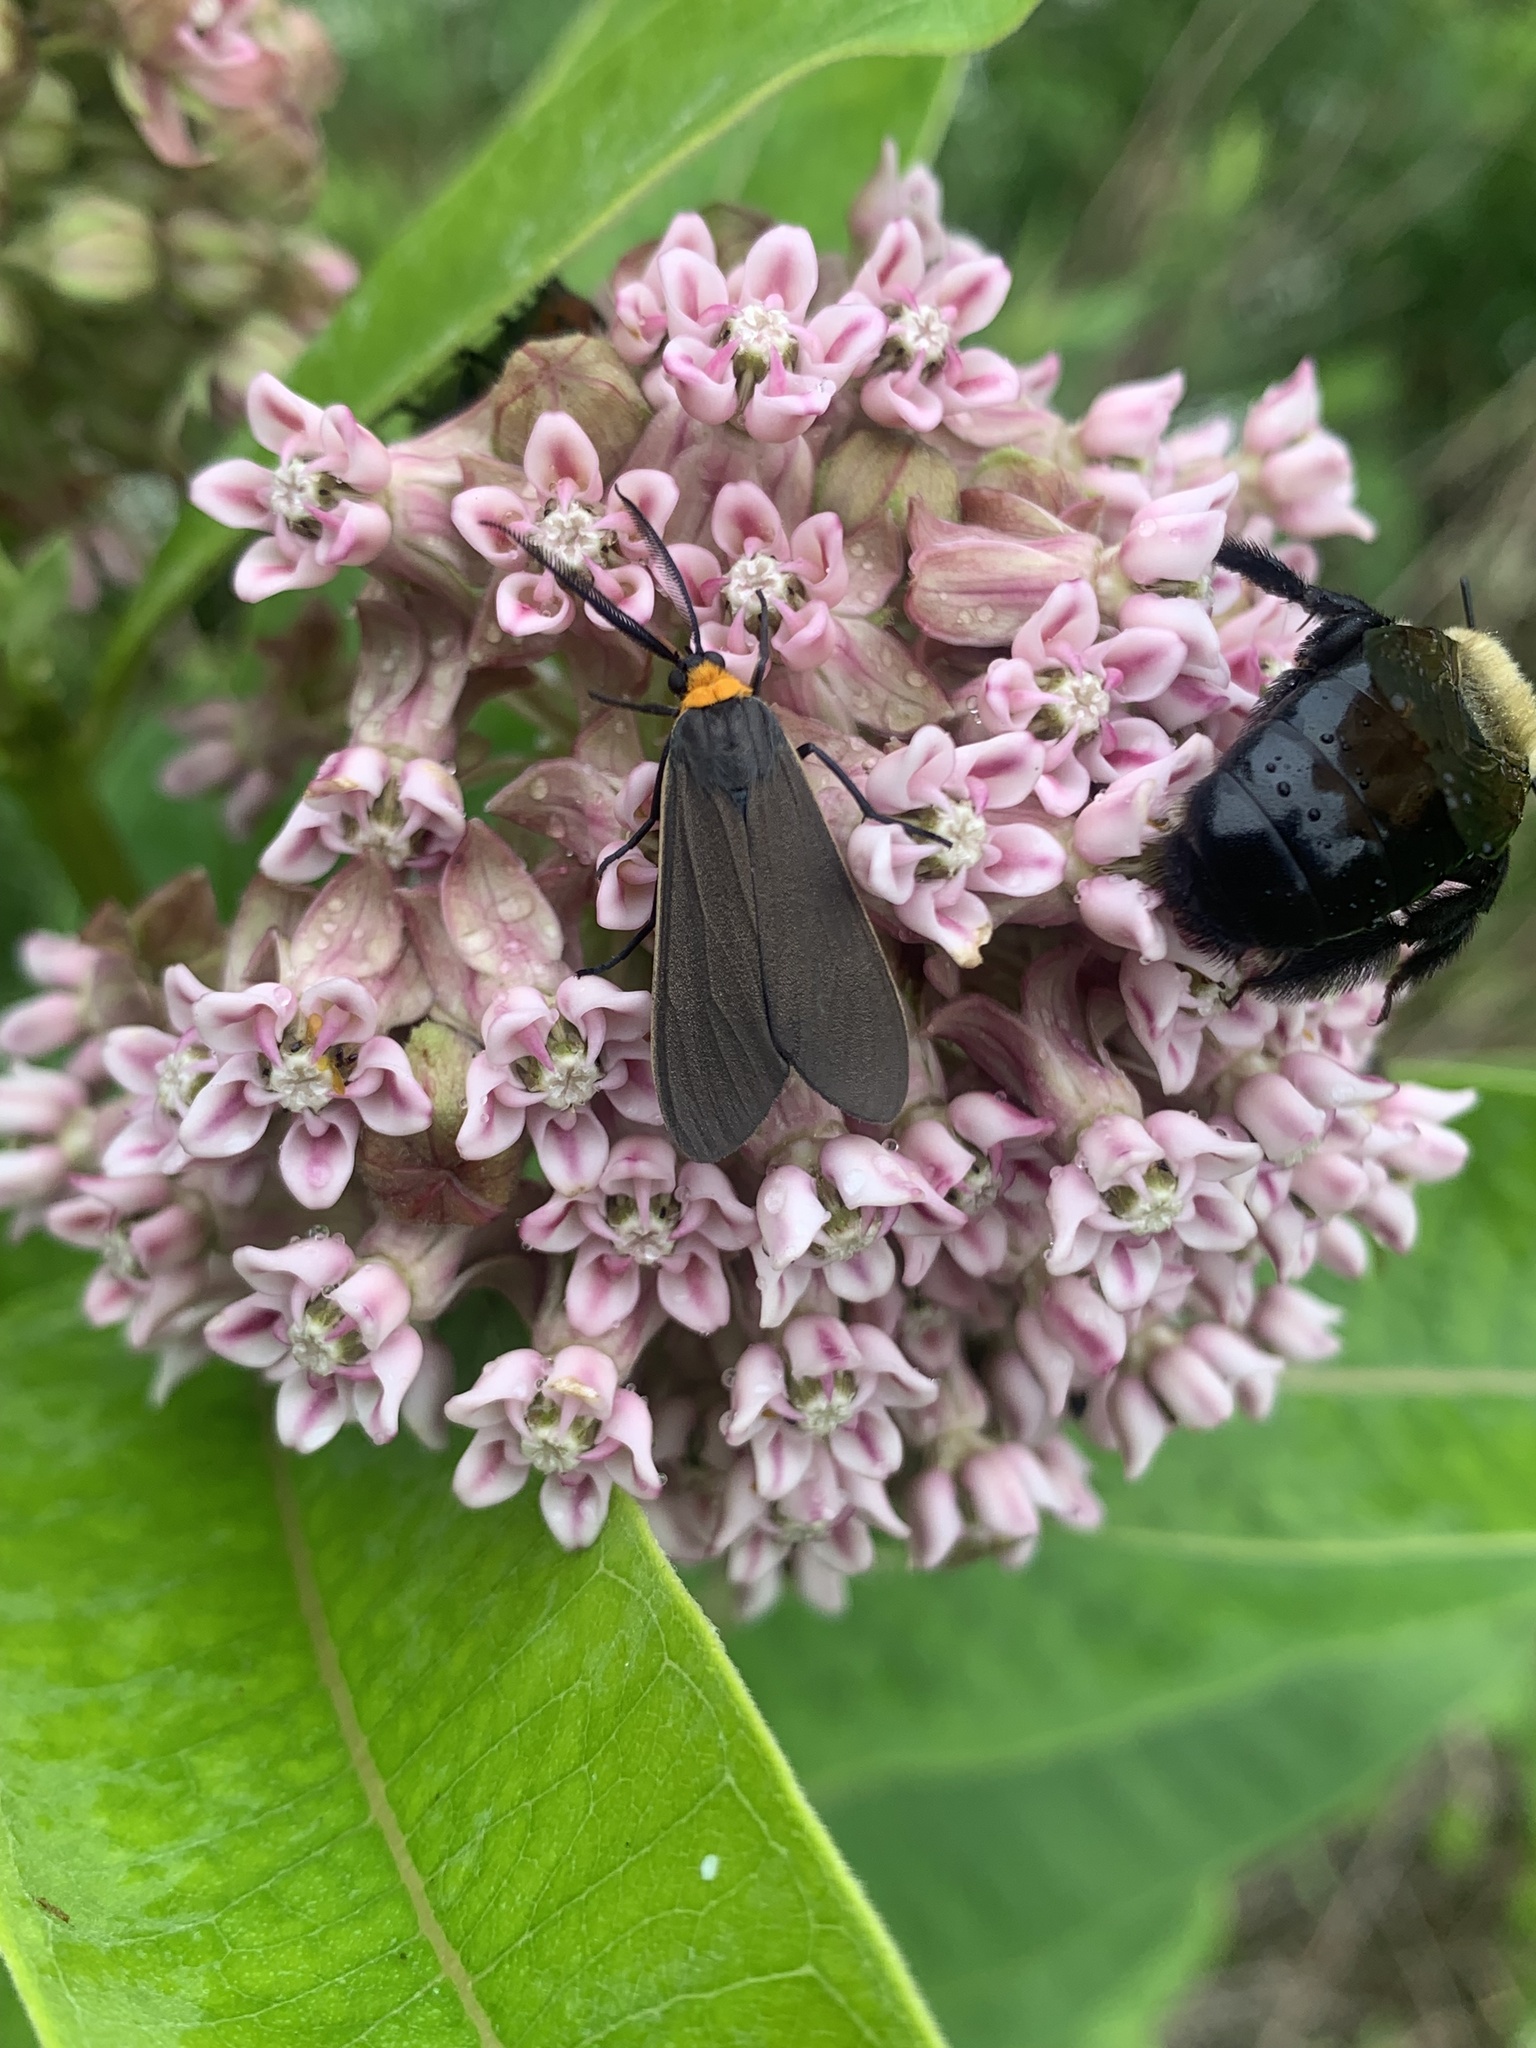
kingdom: Animalia
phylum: Arthropoda
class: Insecta
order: Lepidoptera
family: Erebidae
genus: Cisseps
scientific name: Cisseps fulvicollis
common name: Yellow-collared scape moth
